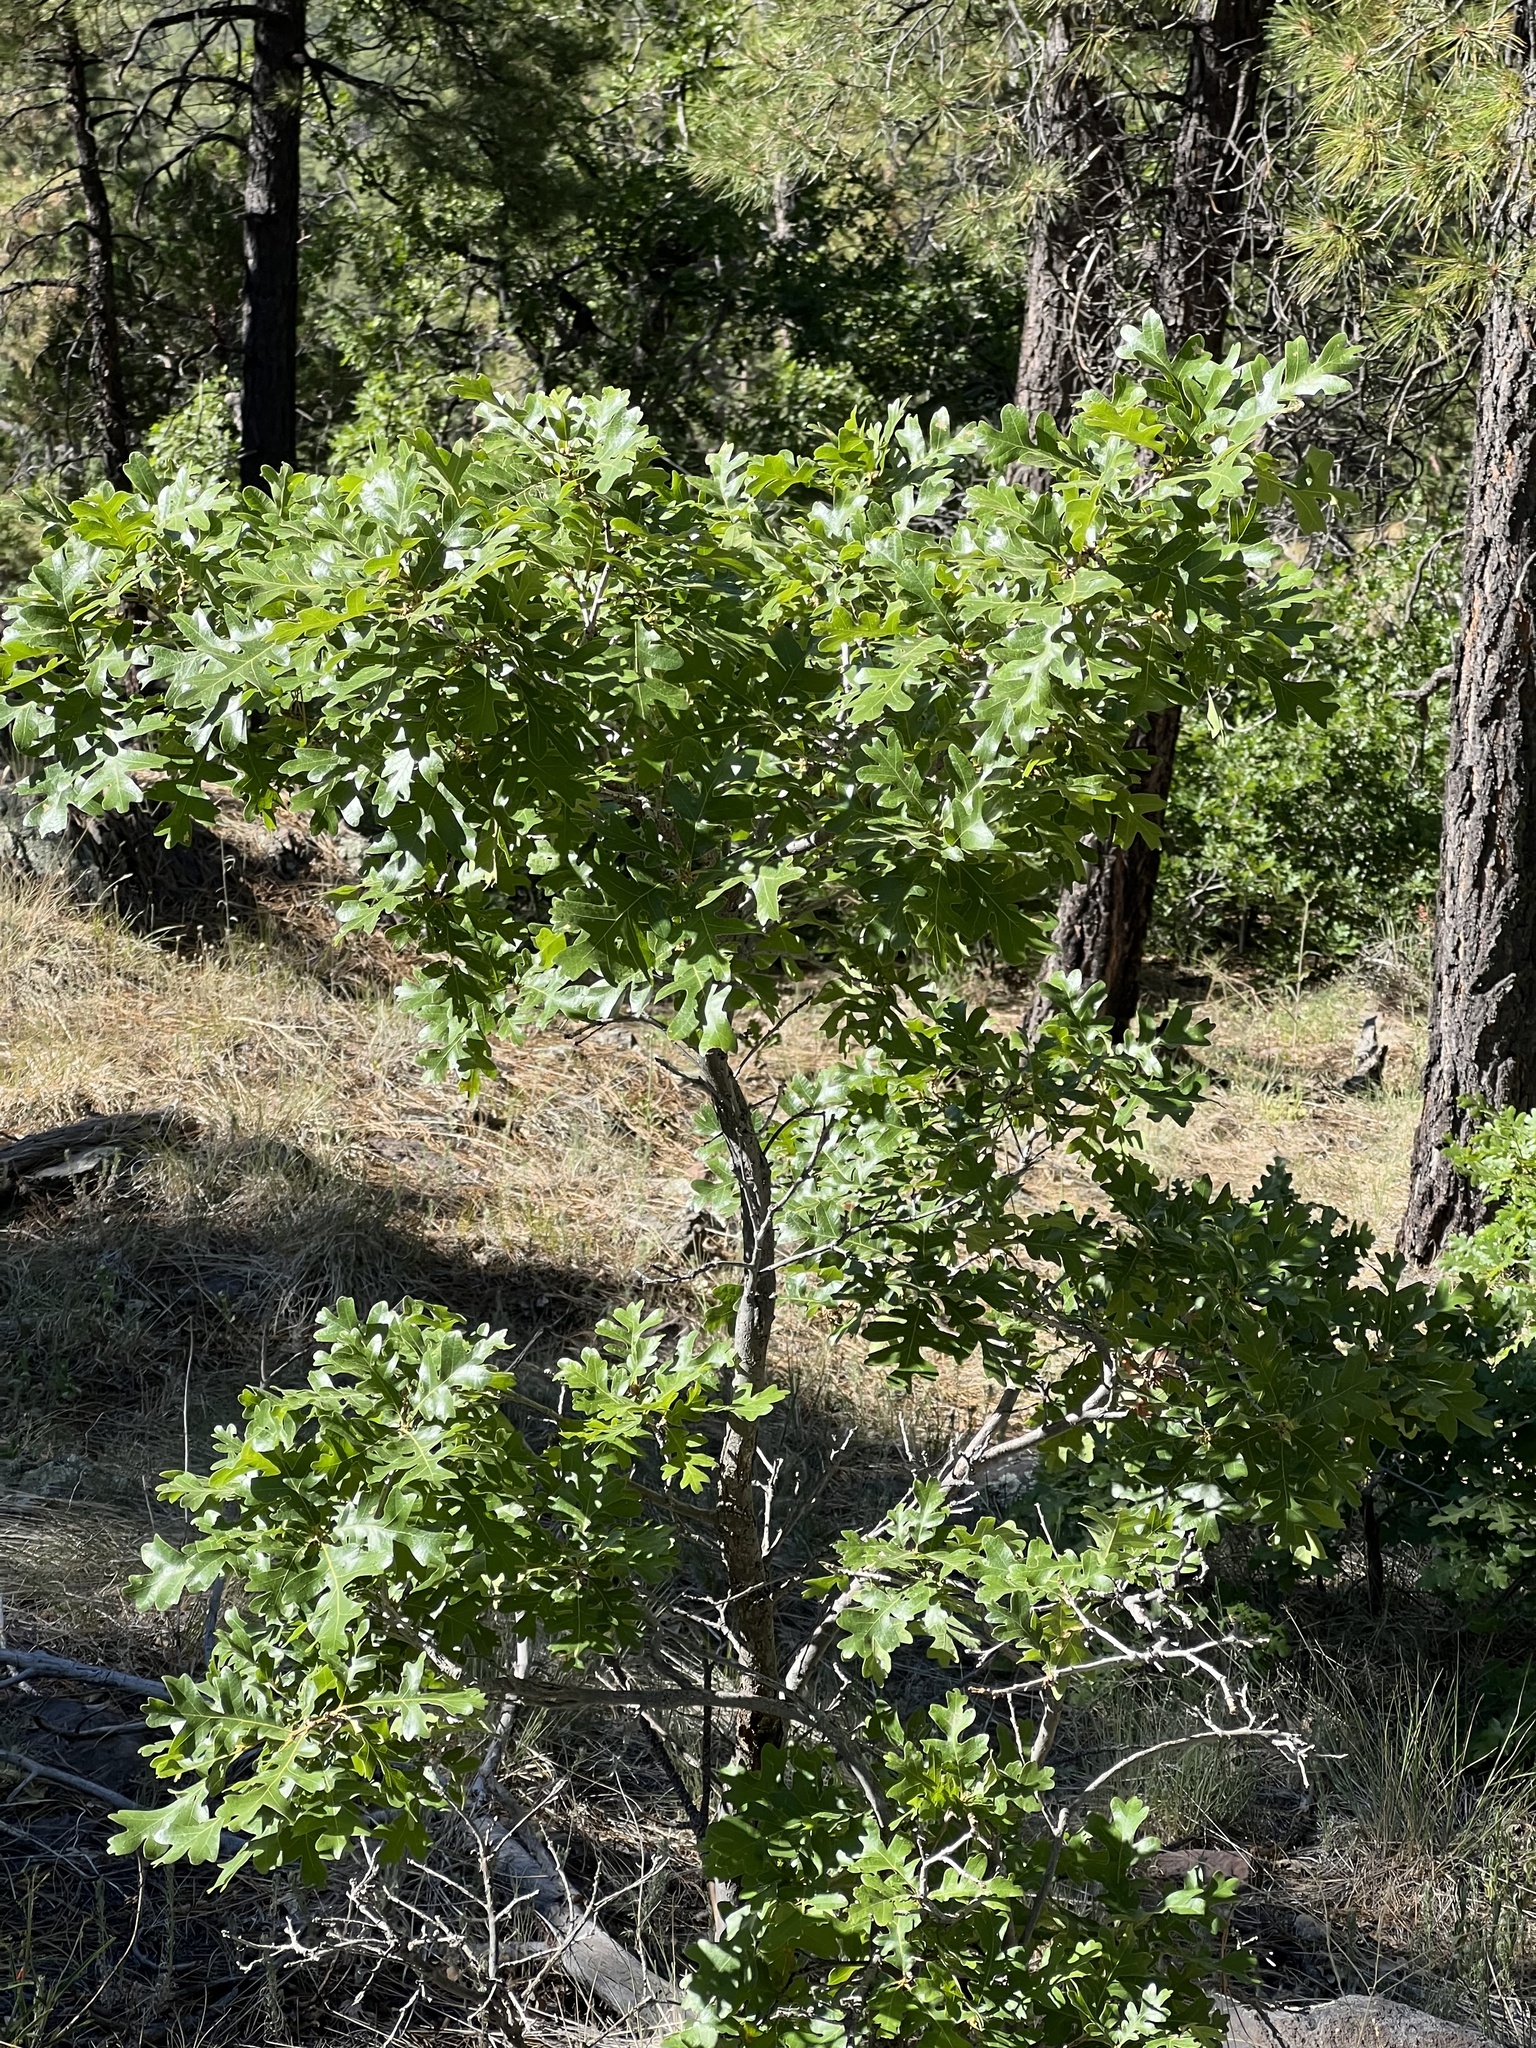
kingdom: Plantae
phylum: Tracheophyta
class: Magnoliopsida
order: Fagales
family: Fagaceae
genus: Quercus
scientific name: Quercus gambelii
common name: Gambel oak
